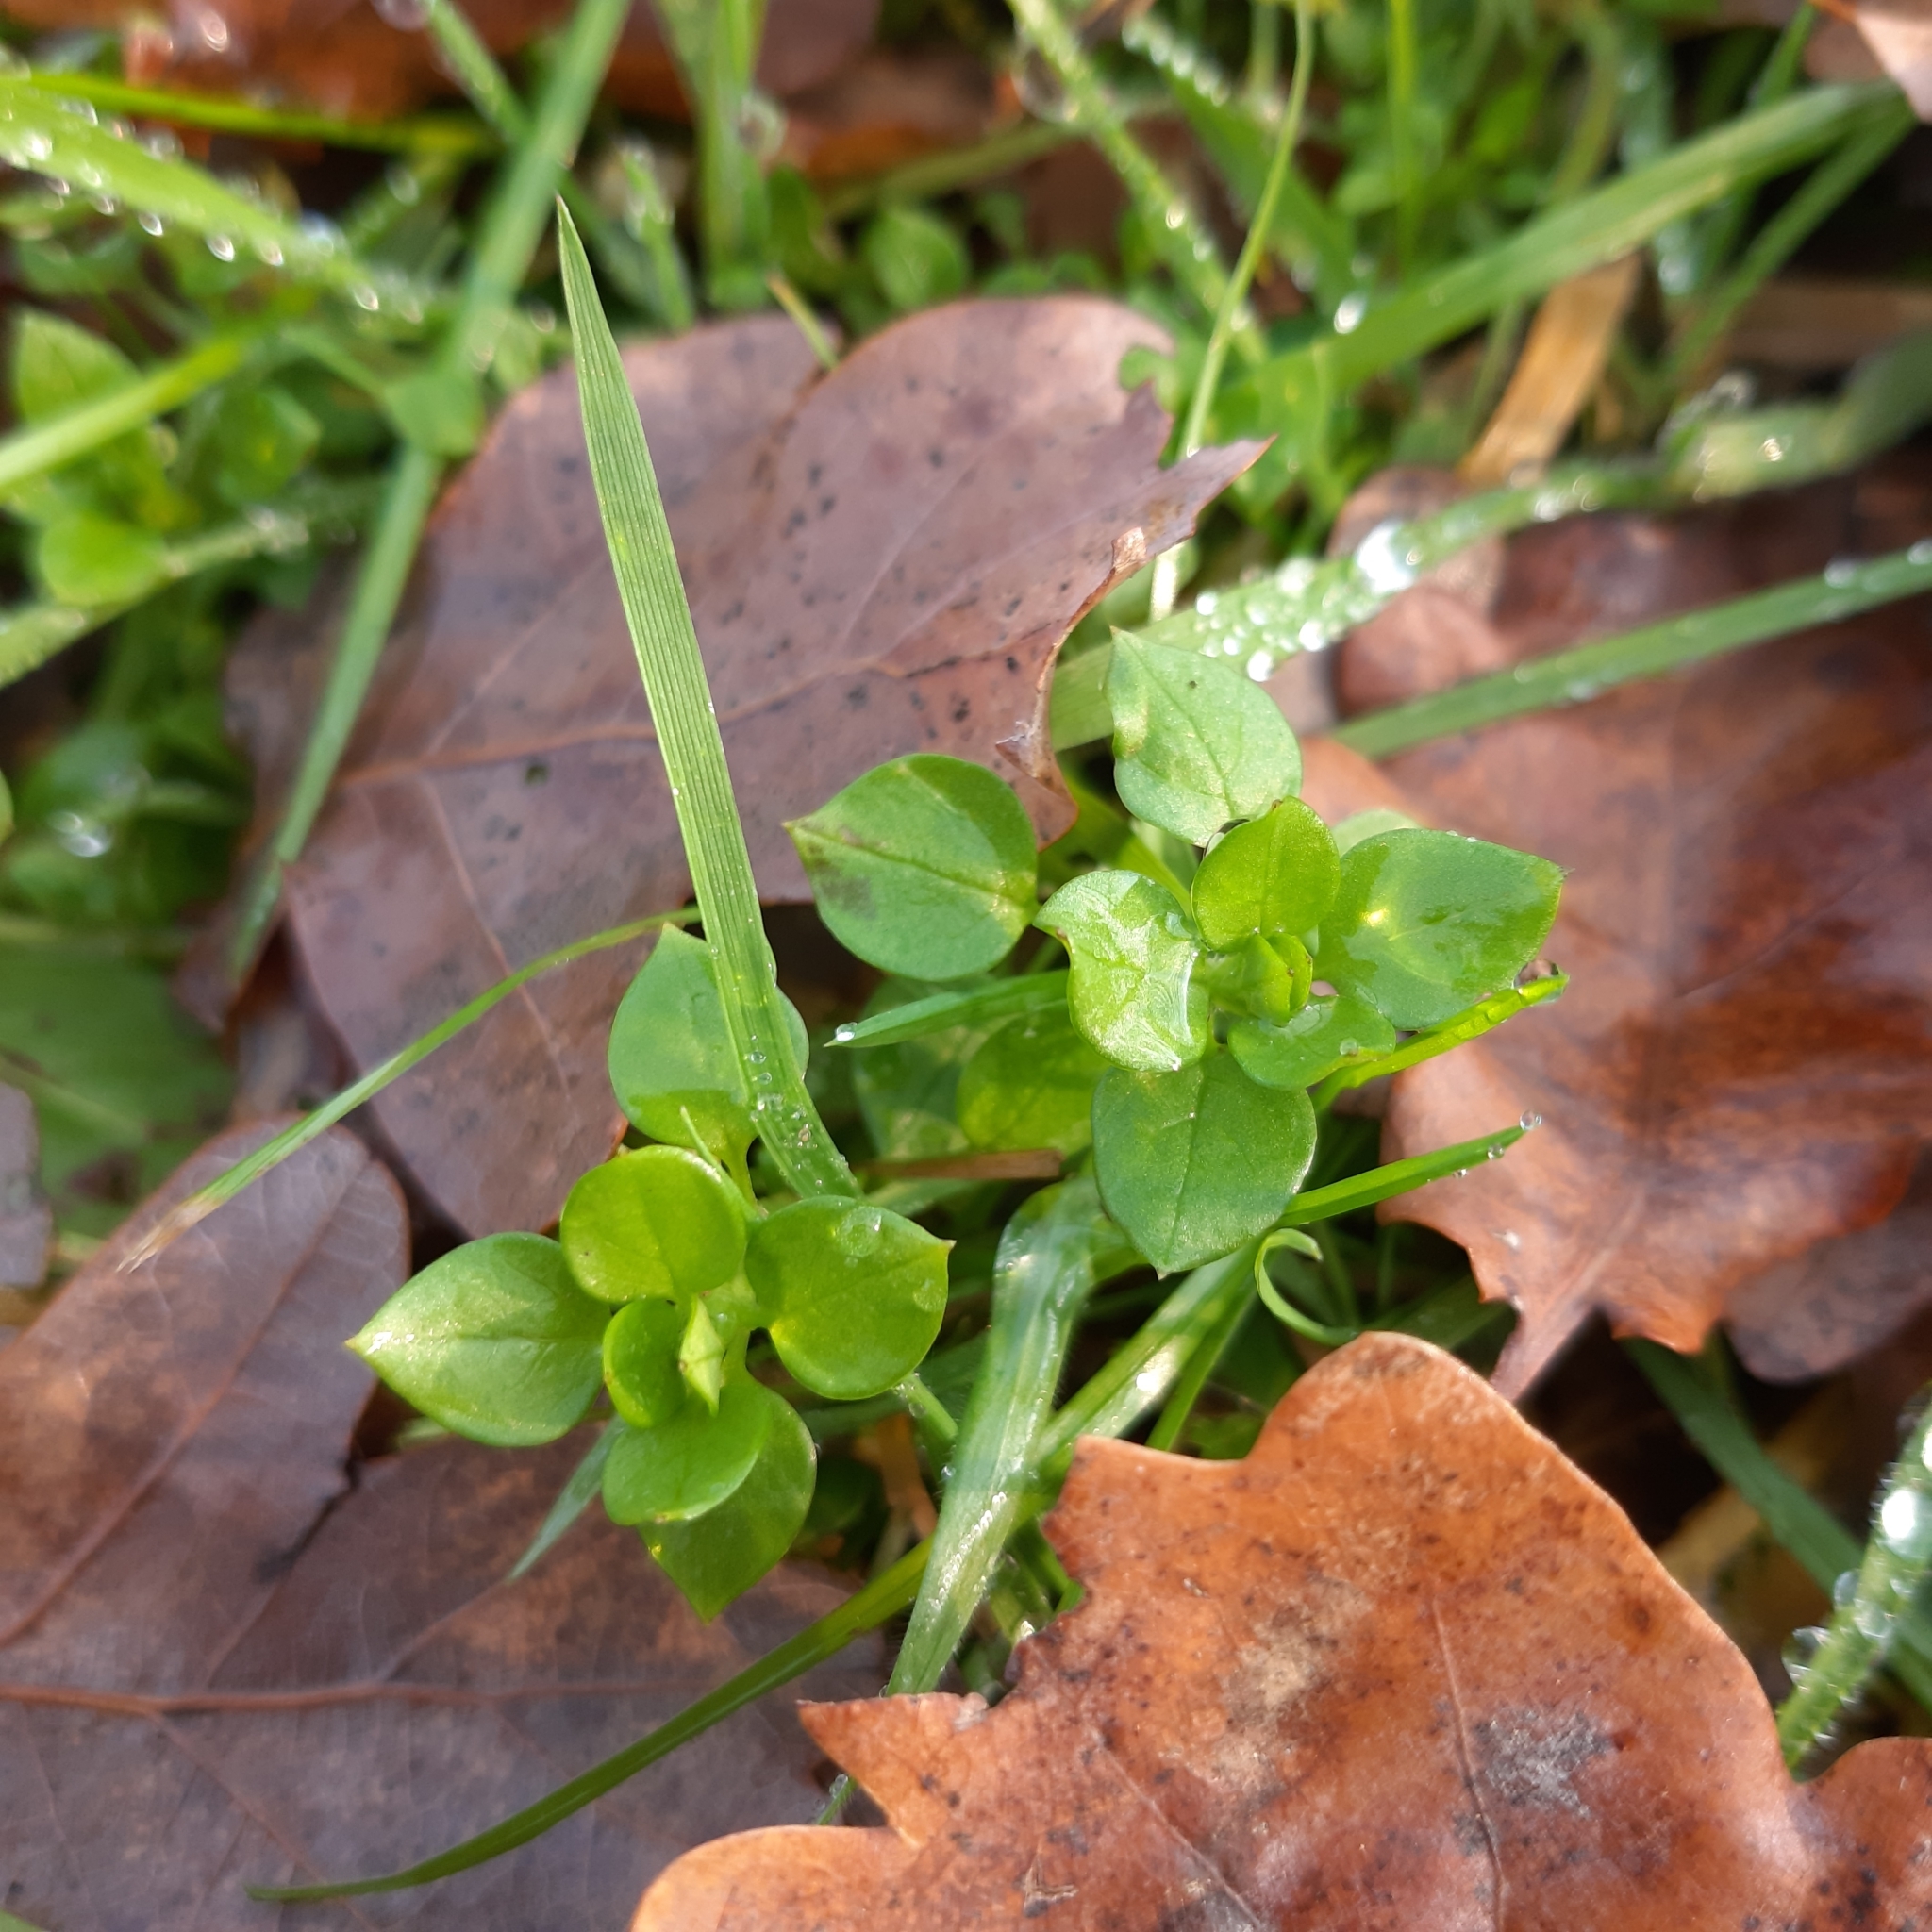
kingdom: Plantae
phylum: Tracheophyta
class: Magnoliopsida
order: Caryophyllales
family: Caryophyllaceae
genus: Stellaria
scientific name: Stellaria media
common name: Common chickweed
